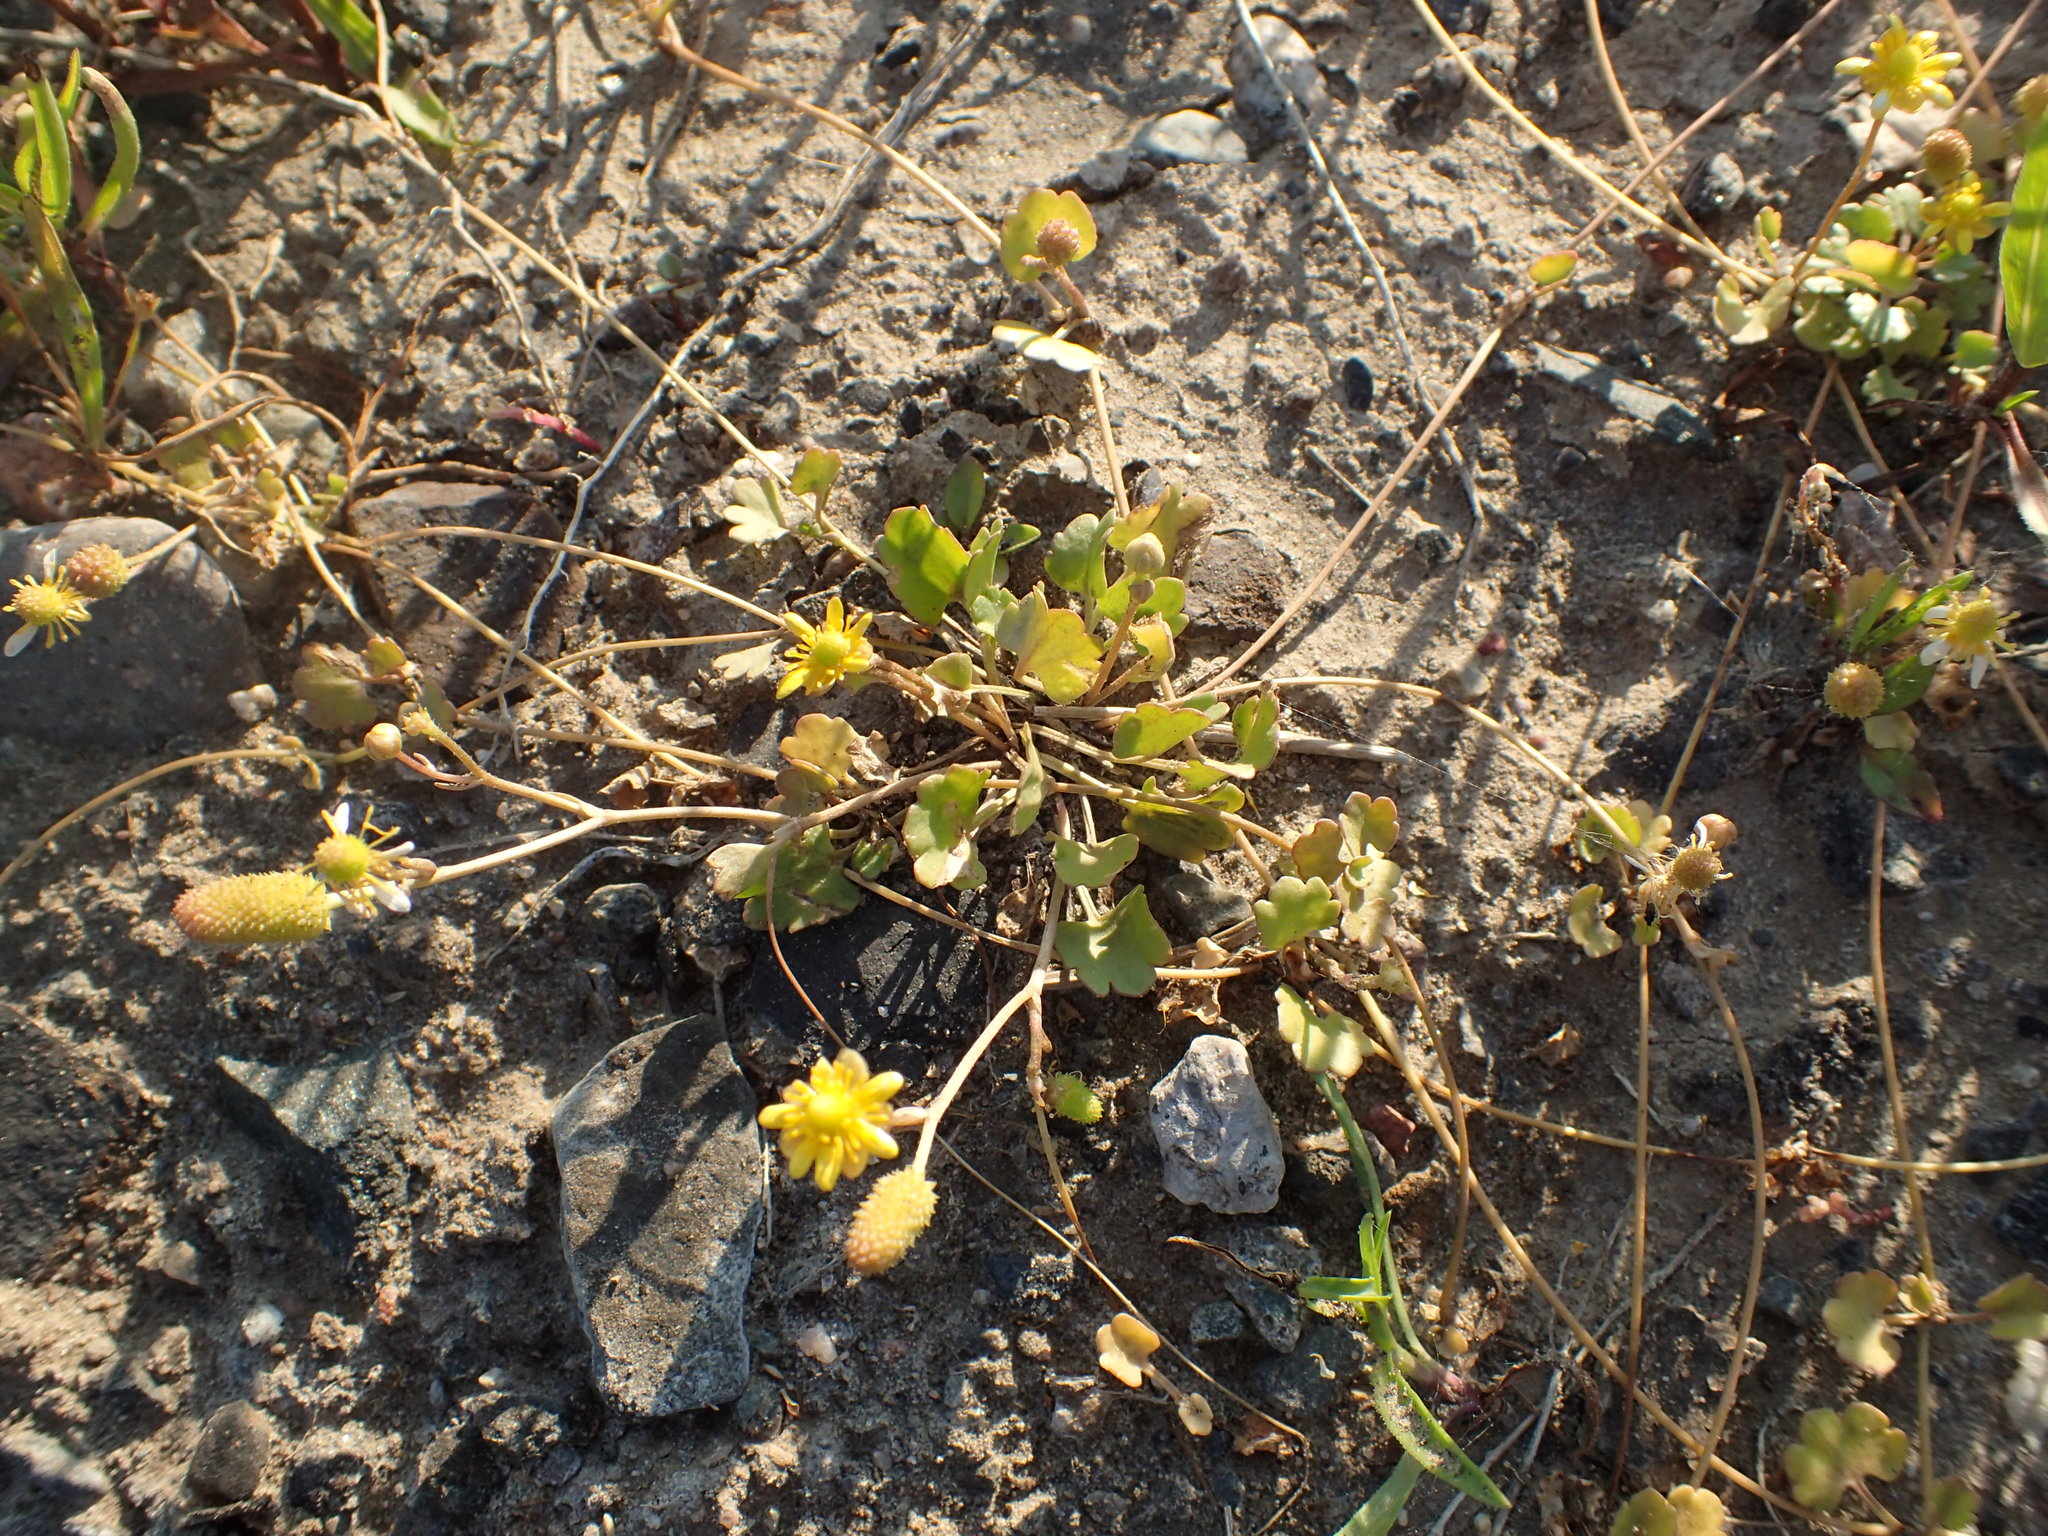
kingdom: Plantae
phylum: Tracheophyta
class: Magnoliopsida
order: Ranunculales
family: Ranunculaceae
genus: Halerpestes
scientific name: Halerpestes cymbalaria
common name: Seaside crowfoot
